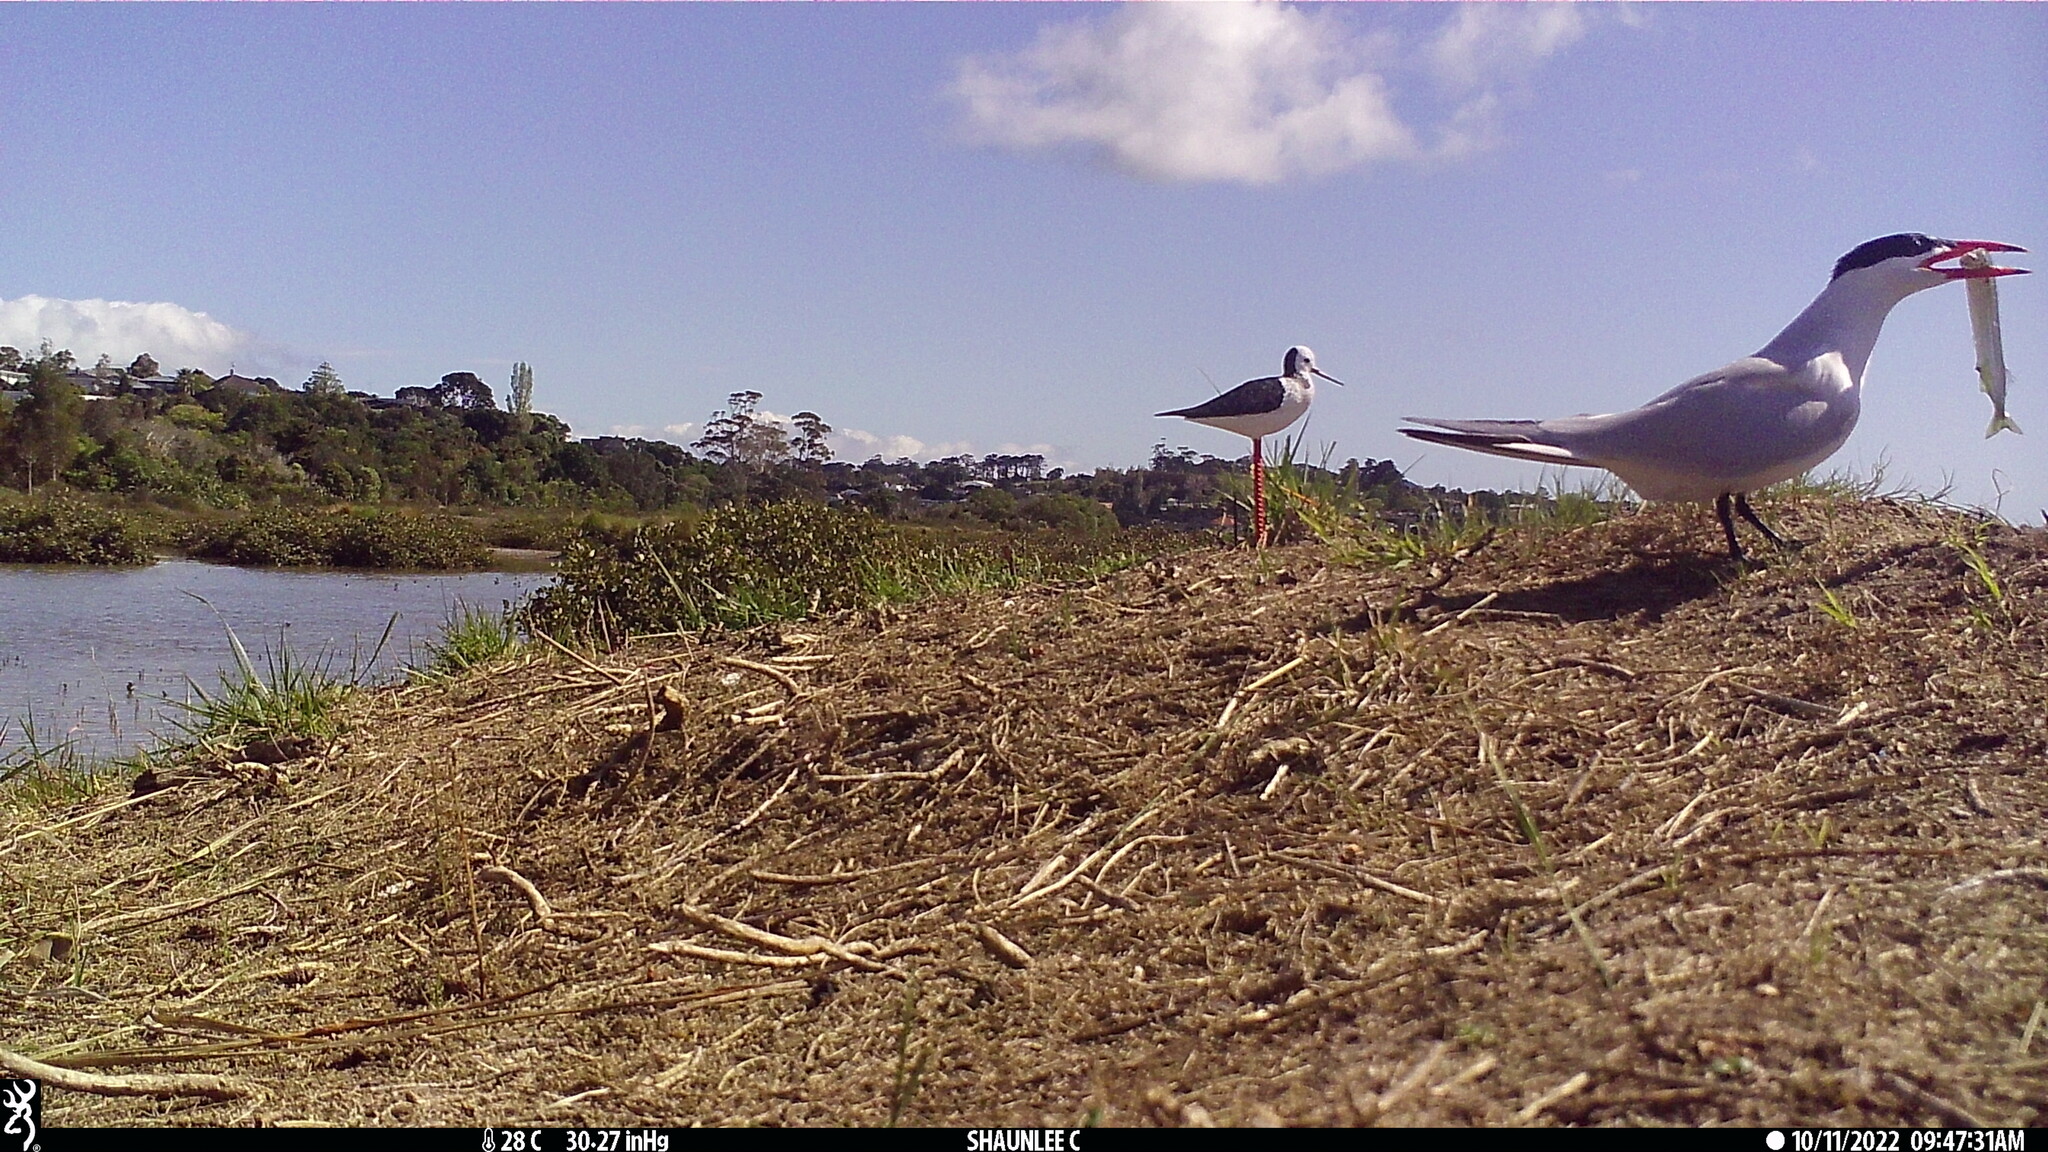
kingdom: Animalia
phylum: Chordata
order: Beloniformes
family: Hemiramphidae
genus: Hyporhamphus
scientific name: Hyporhamphus ihi
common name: Garfish
